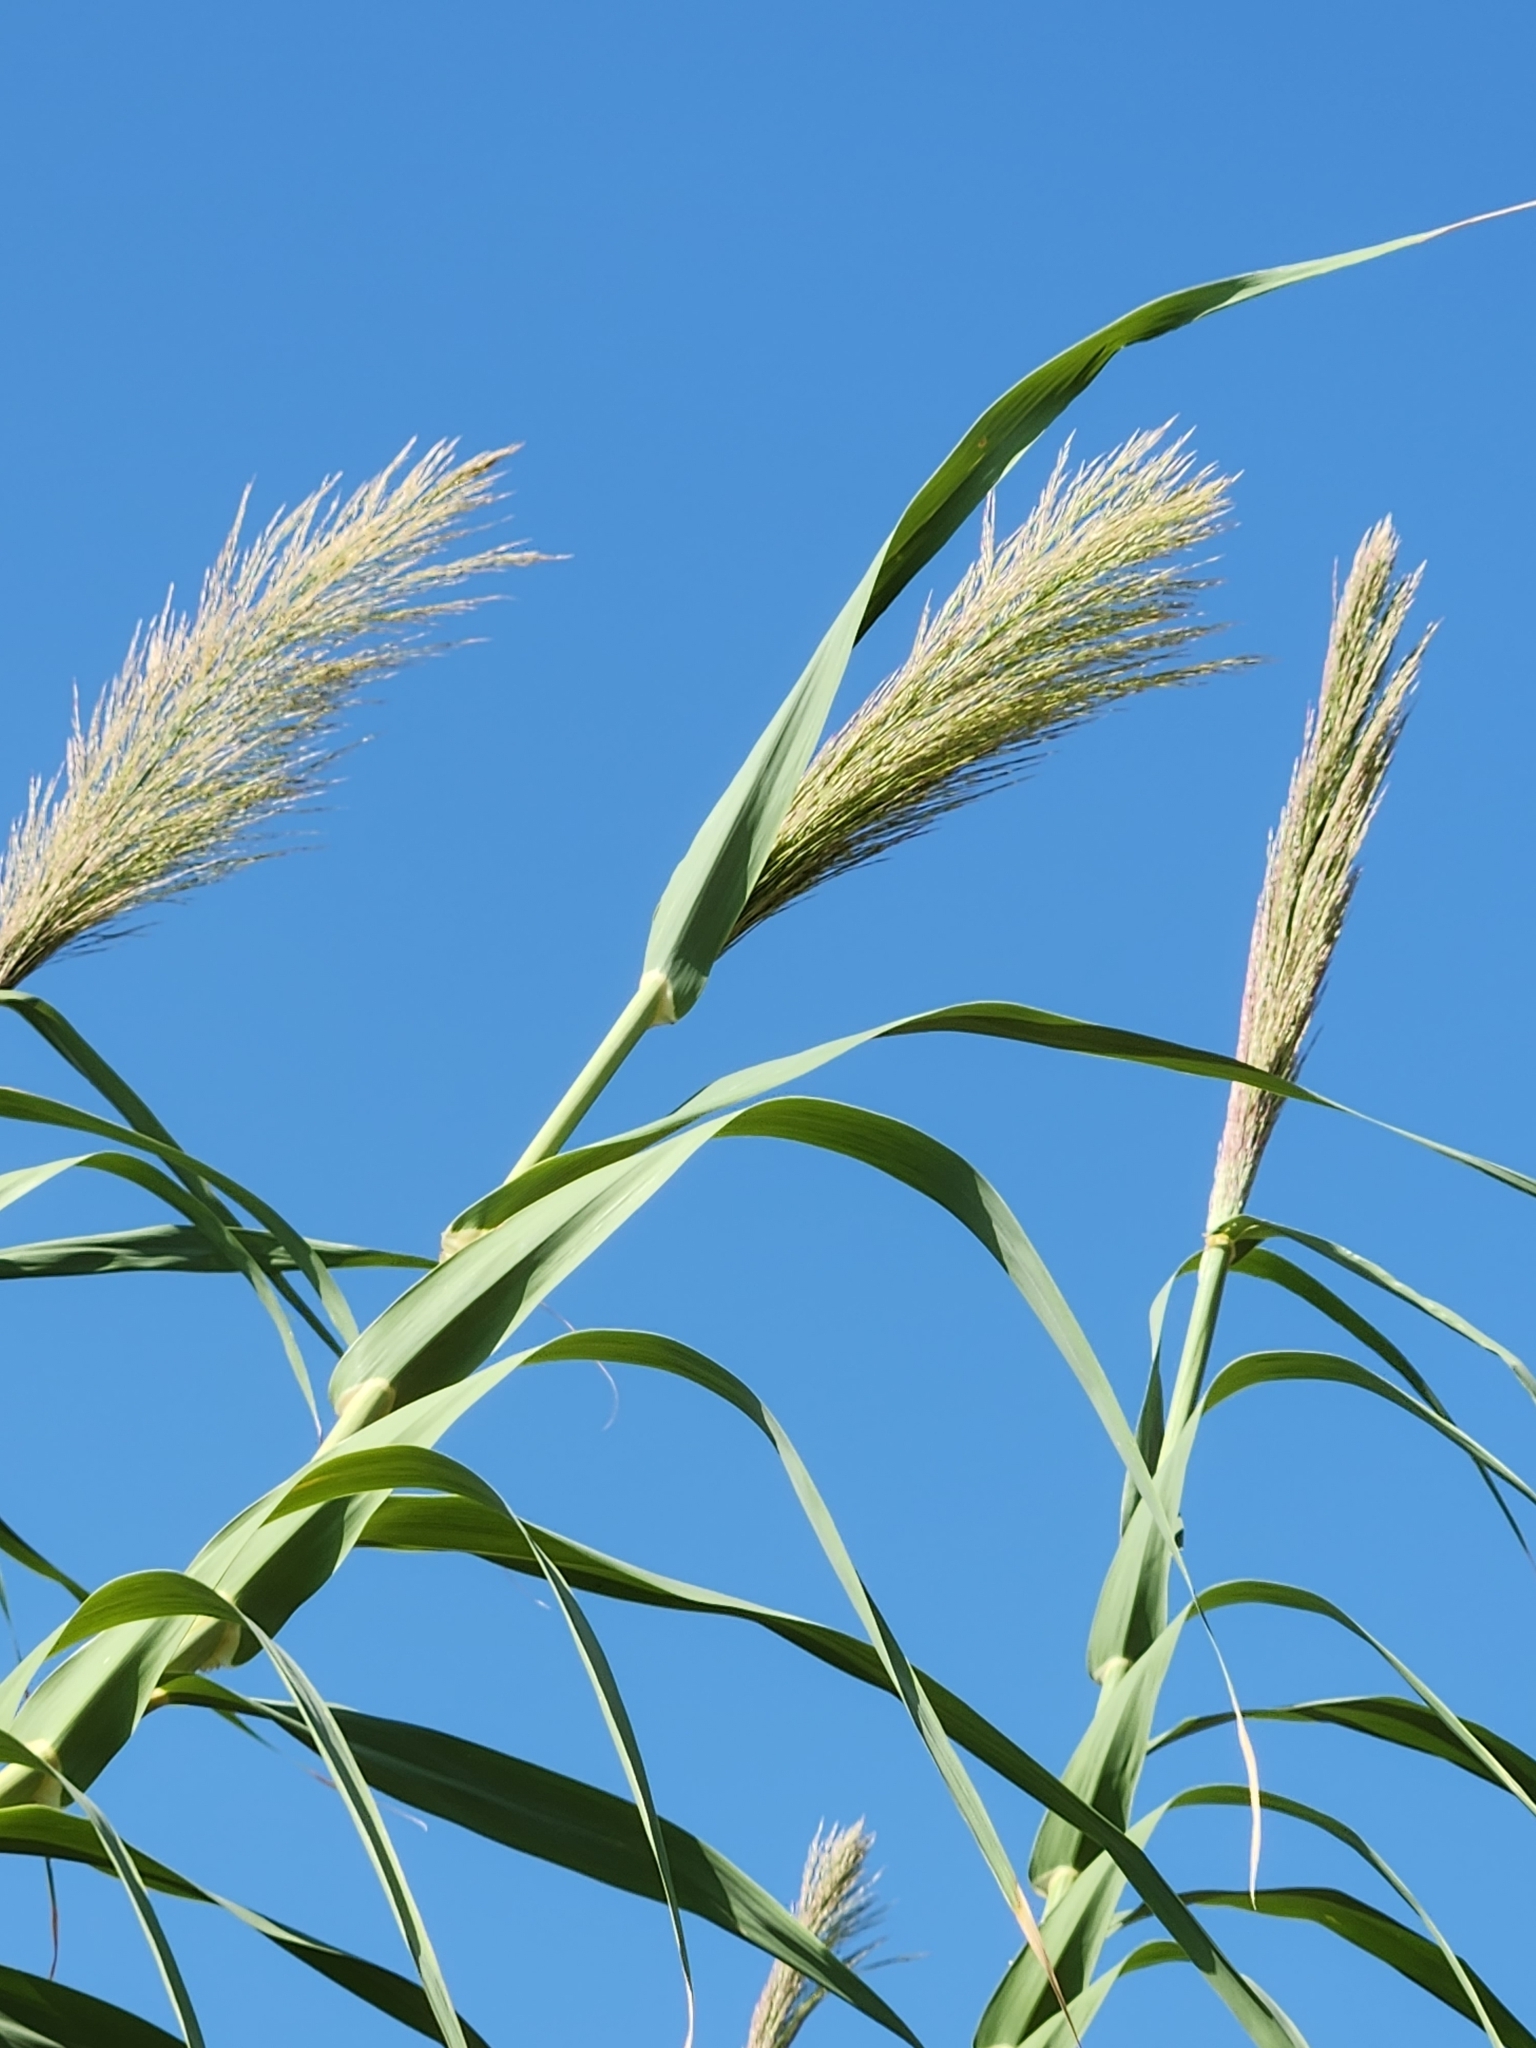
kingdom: Plantae
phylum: Tracheophyta
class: Liliopsida
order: Poales
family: Poaceae
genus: Arundo
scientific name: Arundo donax
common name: Giant reed
